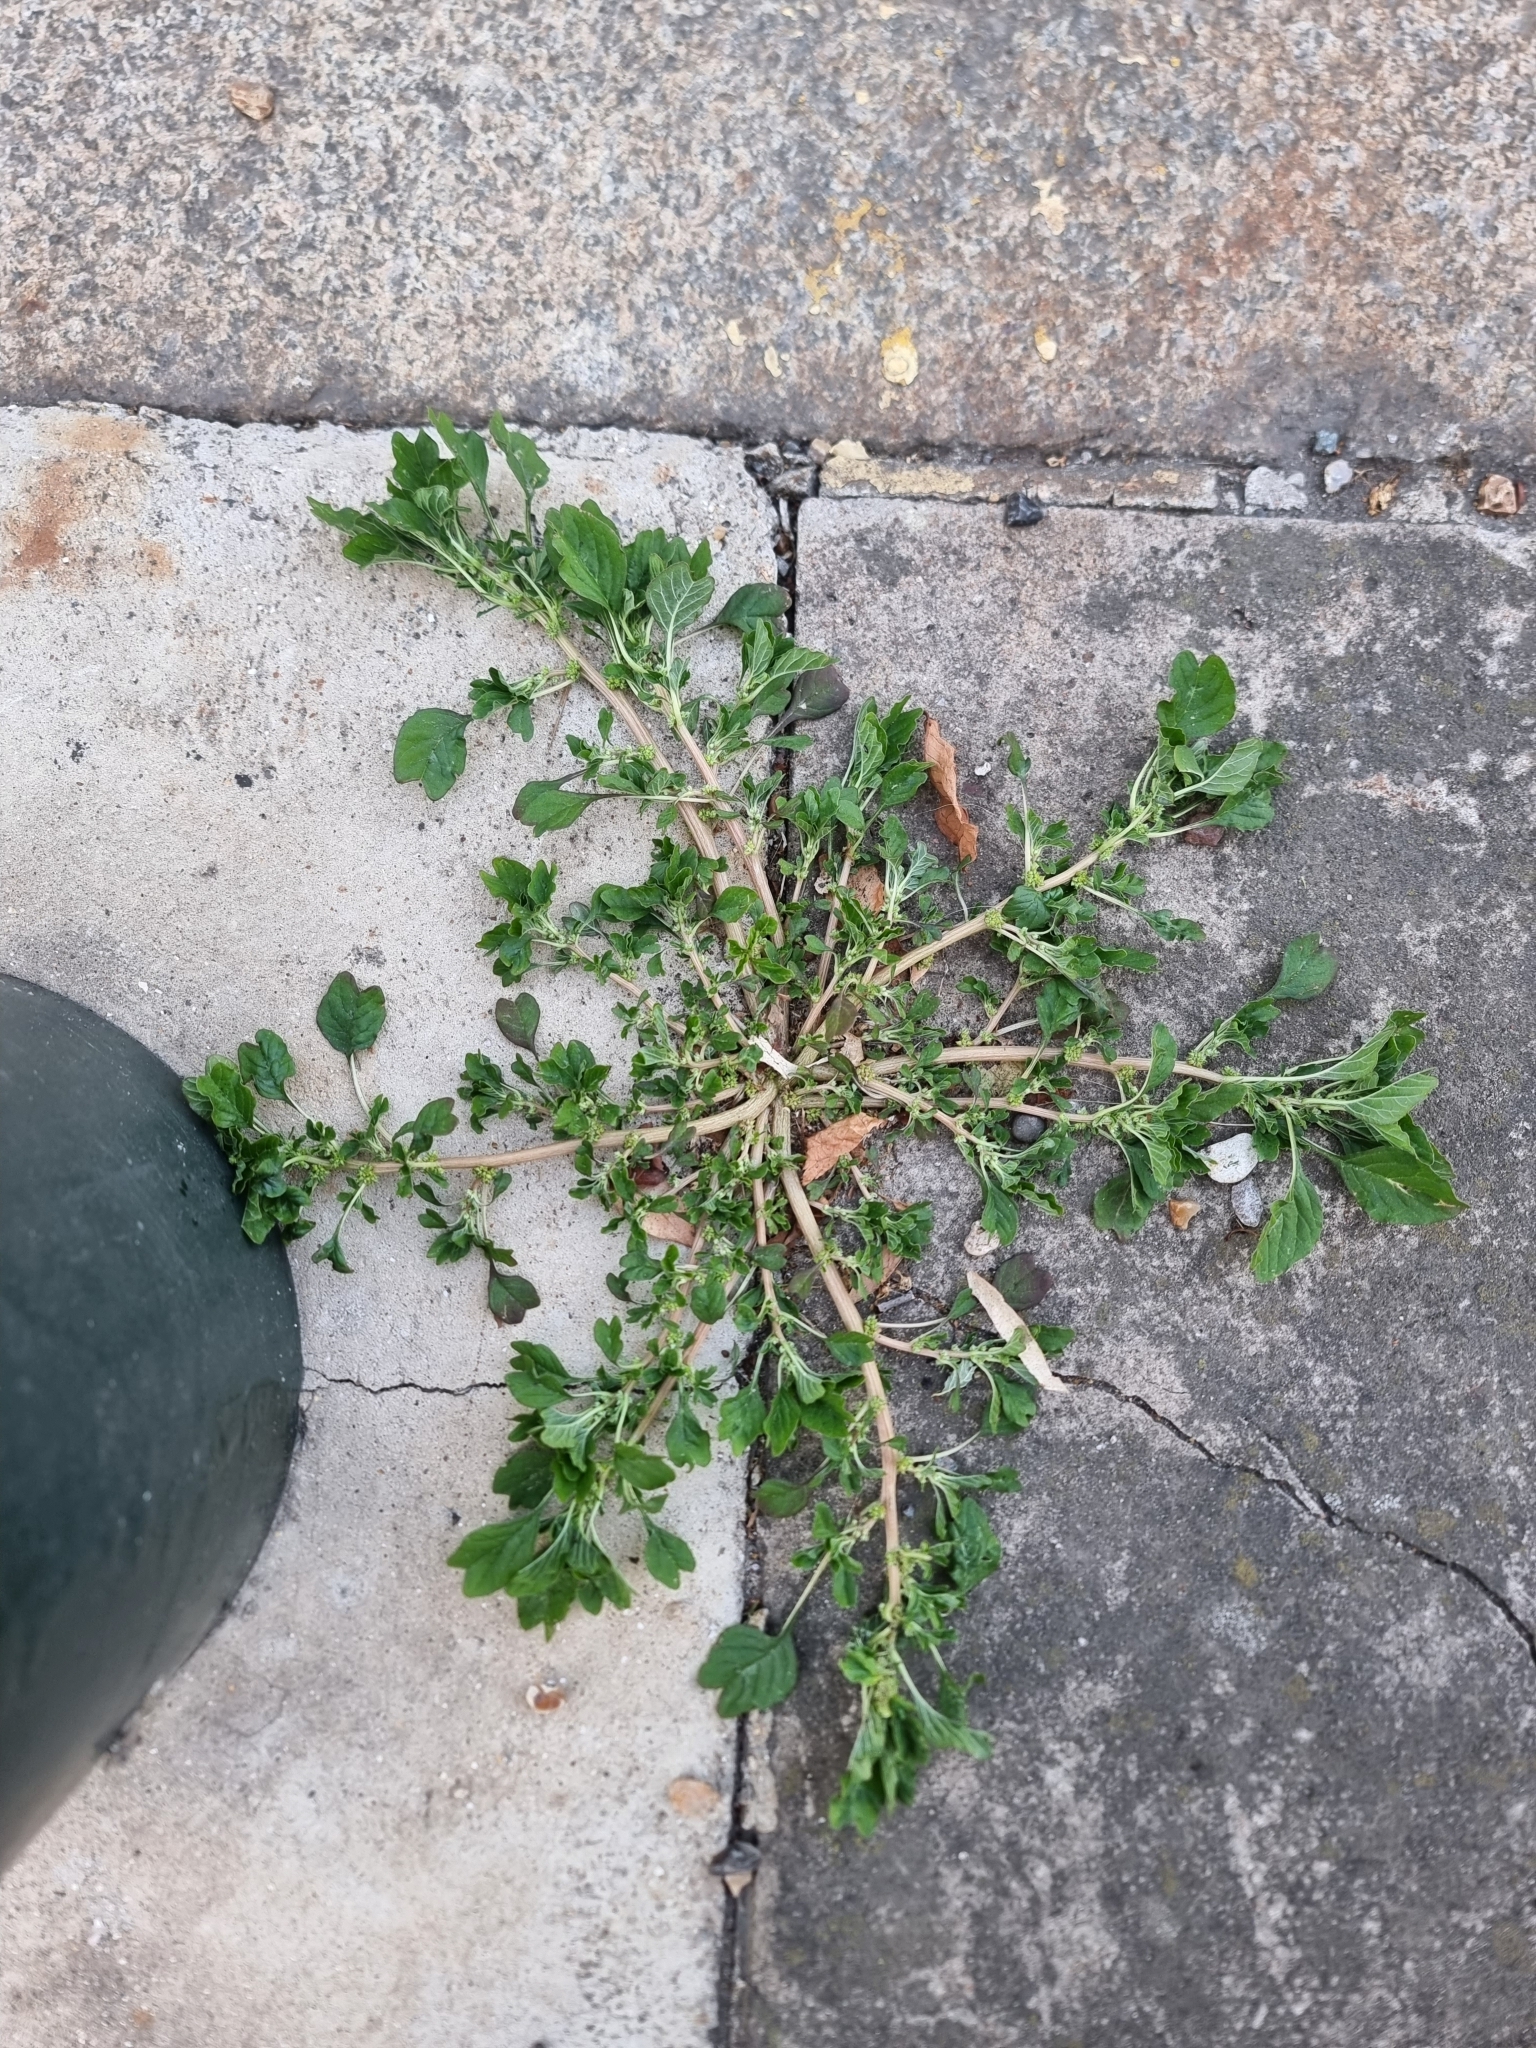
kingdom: Plantae
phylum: Tracheophyta
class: Magnoliopsida
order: Caryophyllales
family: Amaranthaceae
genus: Amaranthus
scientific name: Amaranthus blitum
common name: Purple amaranth
